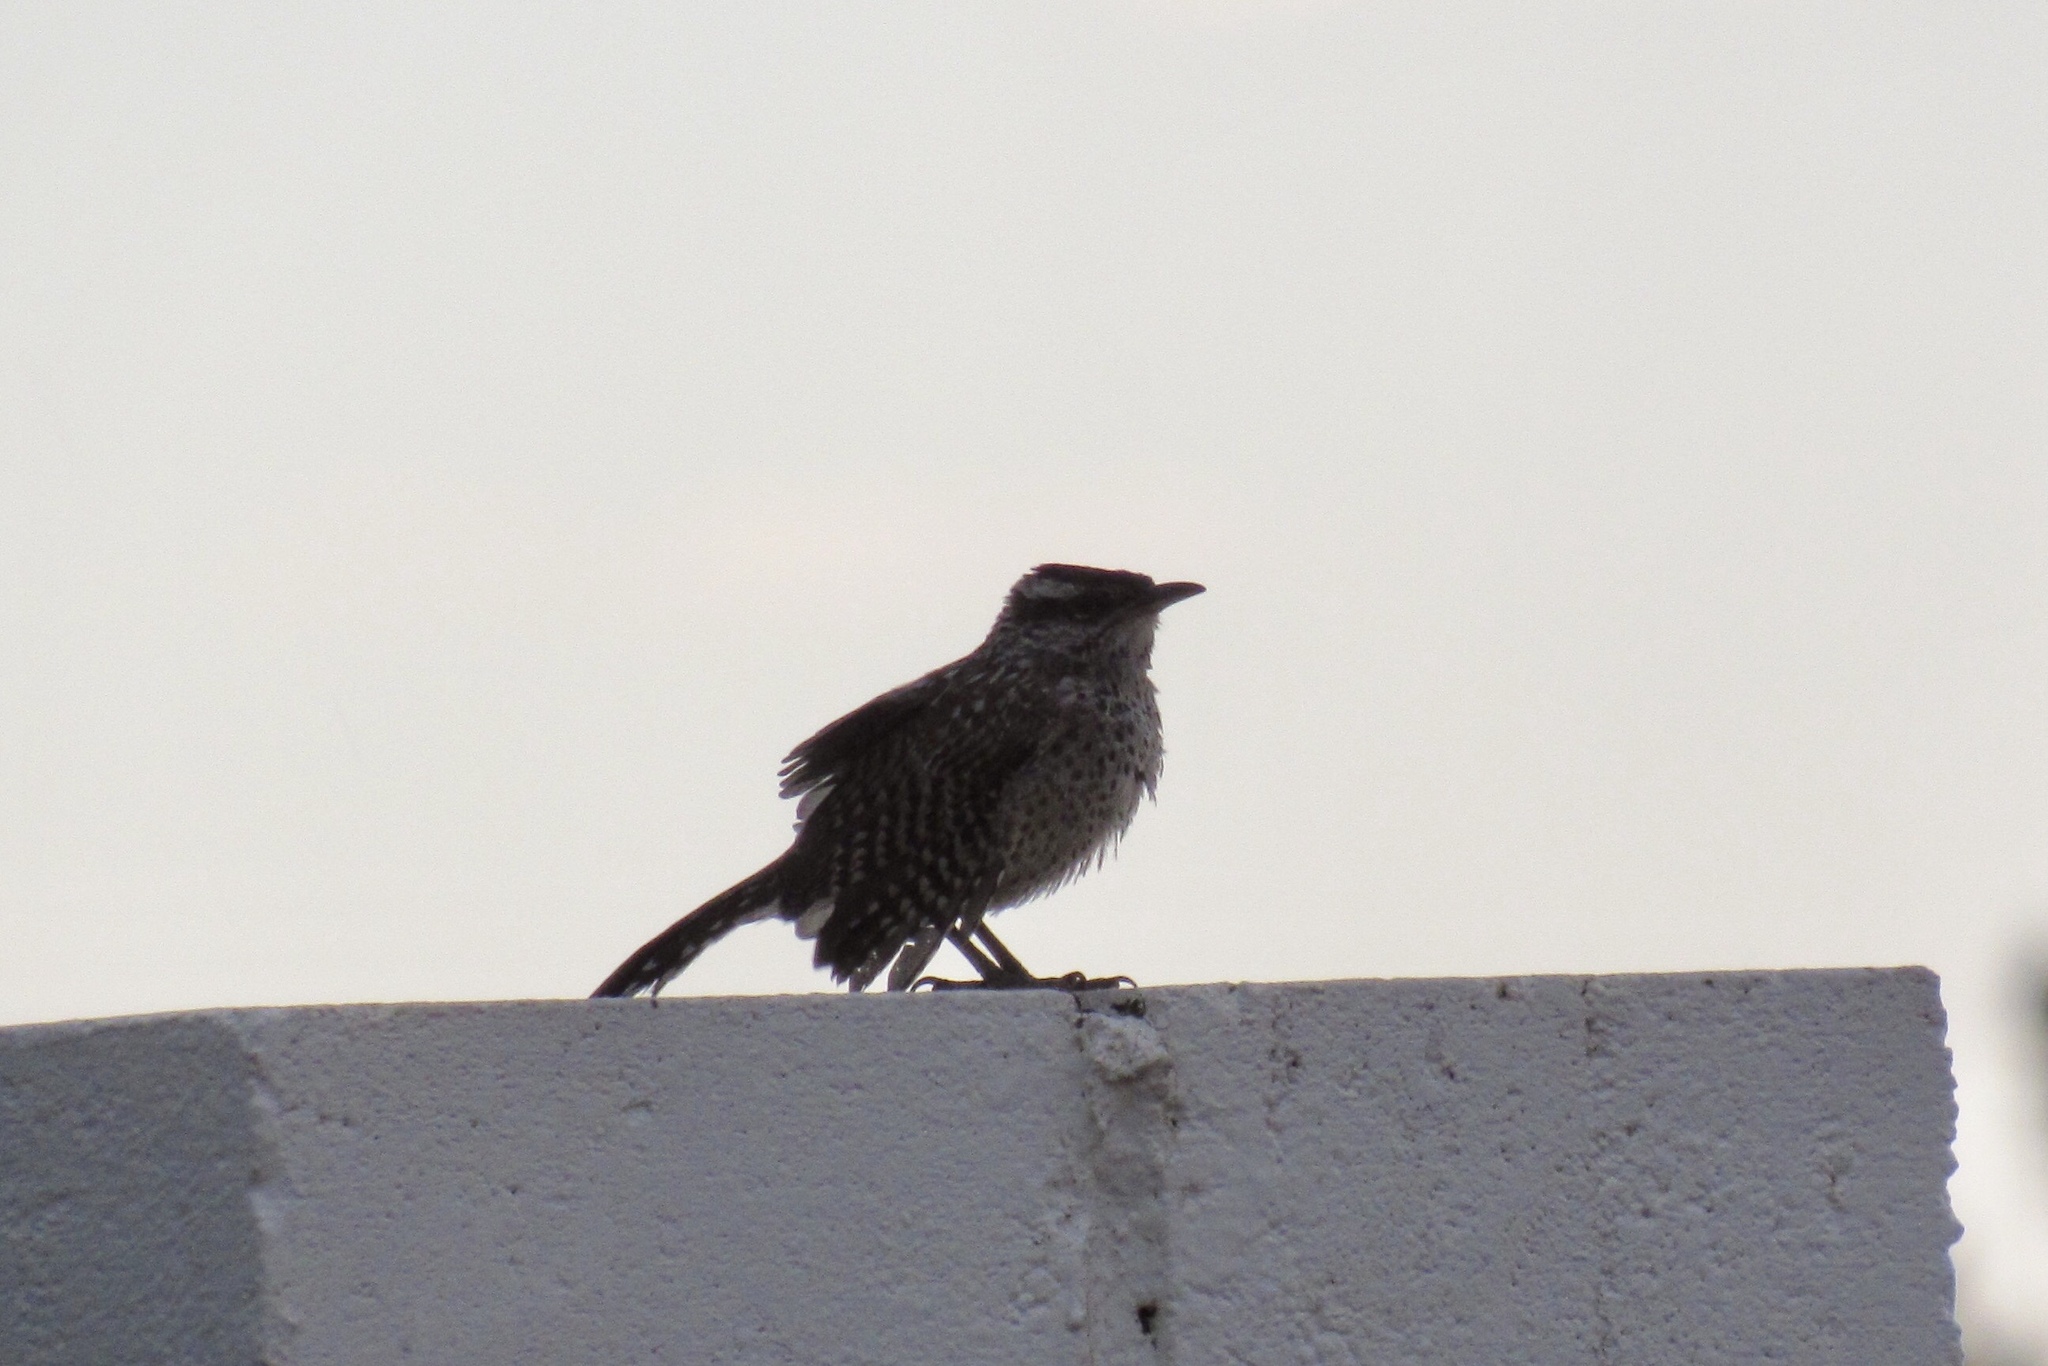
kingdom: Animalia
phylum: Chordata
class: Aves
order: Passeriformes
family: Troglodytidae
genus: Campylorhynchus
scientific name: Campylorhynchus brunneicapillus
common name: Cactus wren
